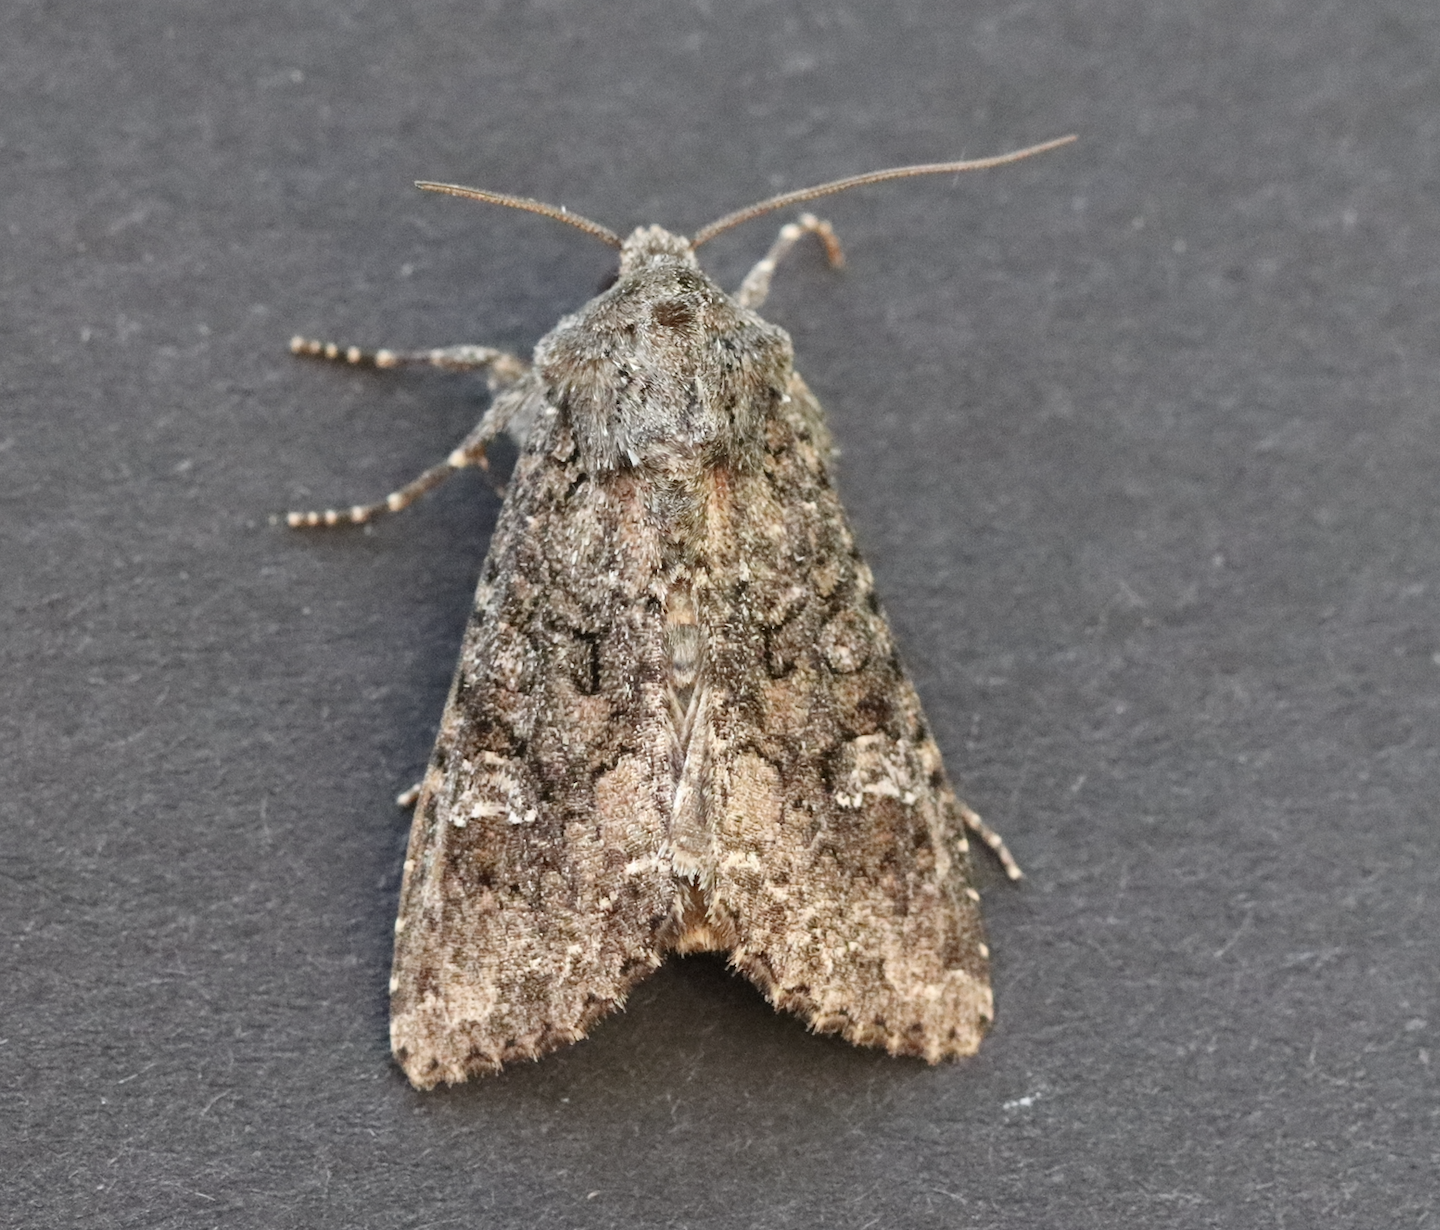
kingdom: Animalia
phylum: Arthropoda
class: Insecta
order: Lepidoptera
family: Noctuidae
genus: Mamestra
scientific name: Mamestra brassicae
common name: Cabbage moth
